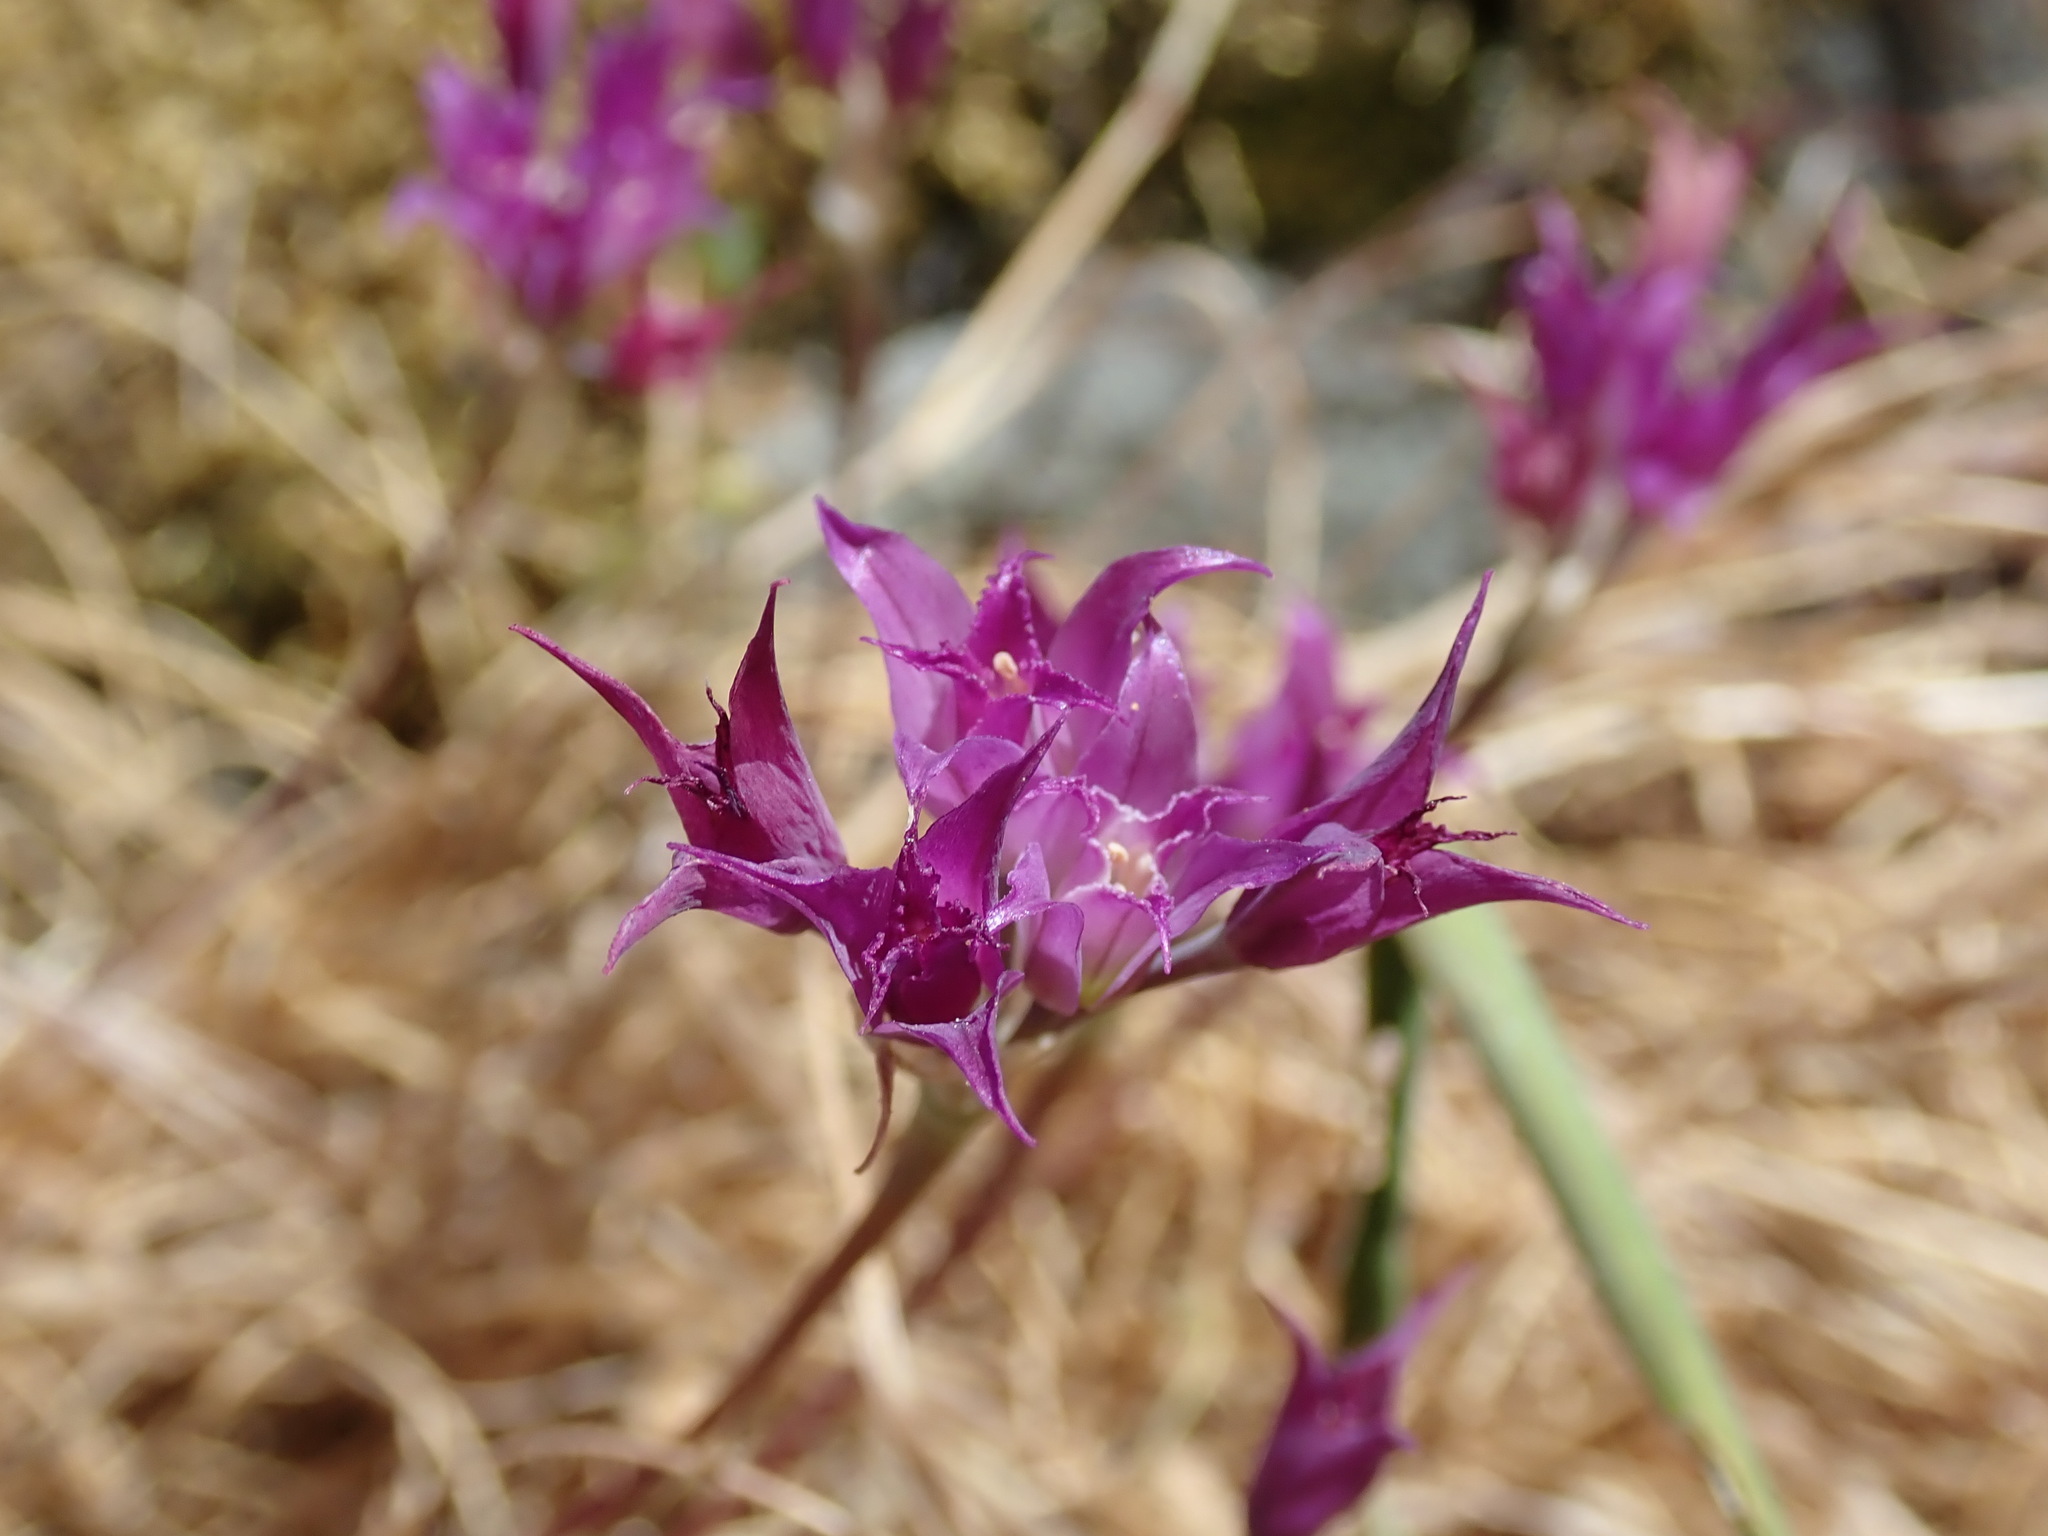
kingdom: Plantae
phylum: Tracheophyta
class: Liliopsida
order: Asparagales
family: Amaryllidaceae
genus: Allium
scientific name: Allium acuminatum
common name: Hooker's onion
